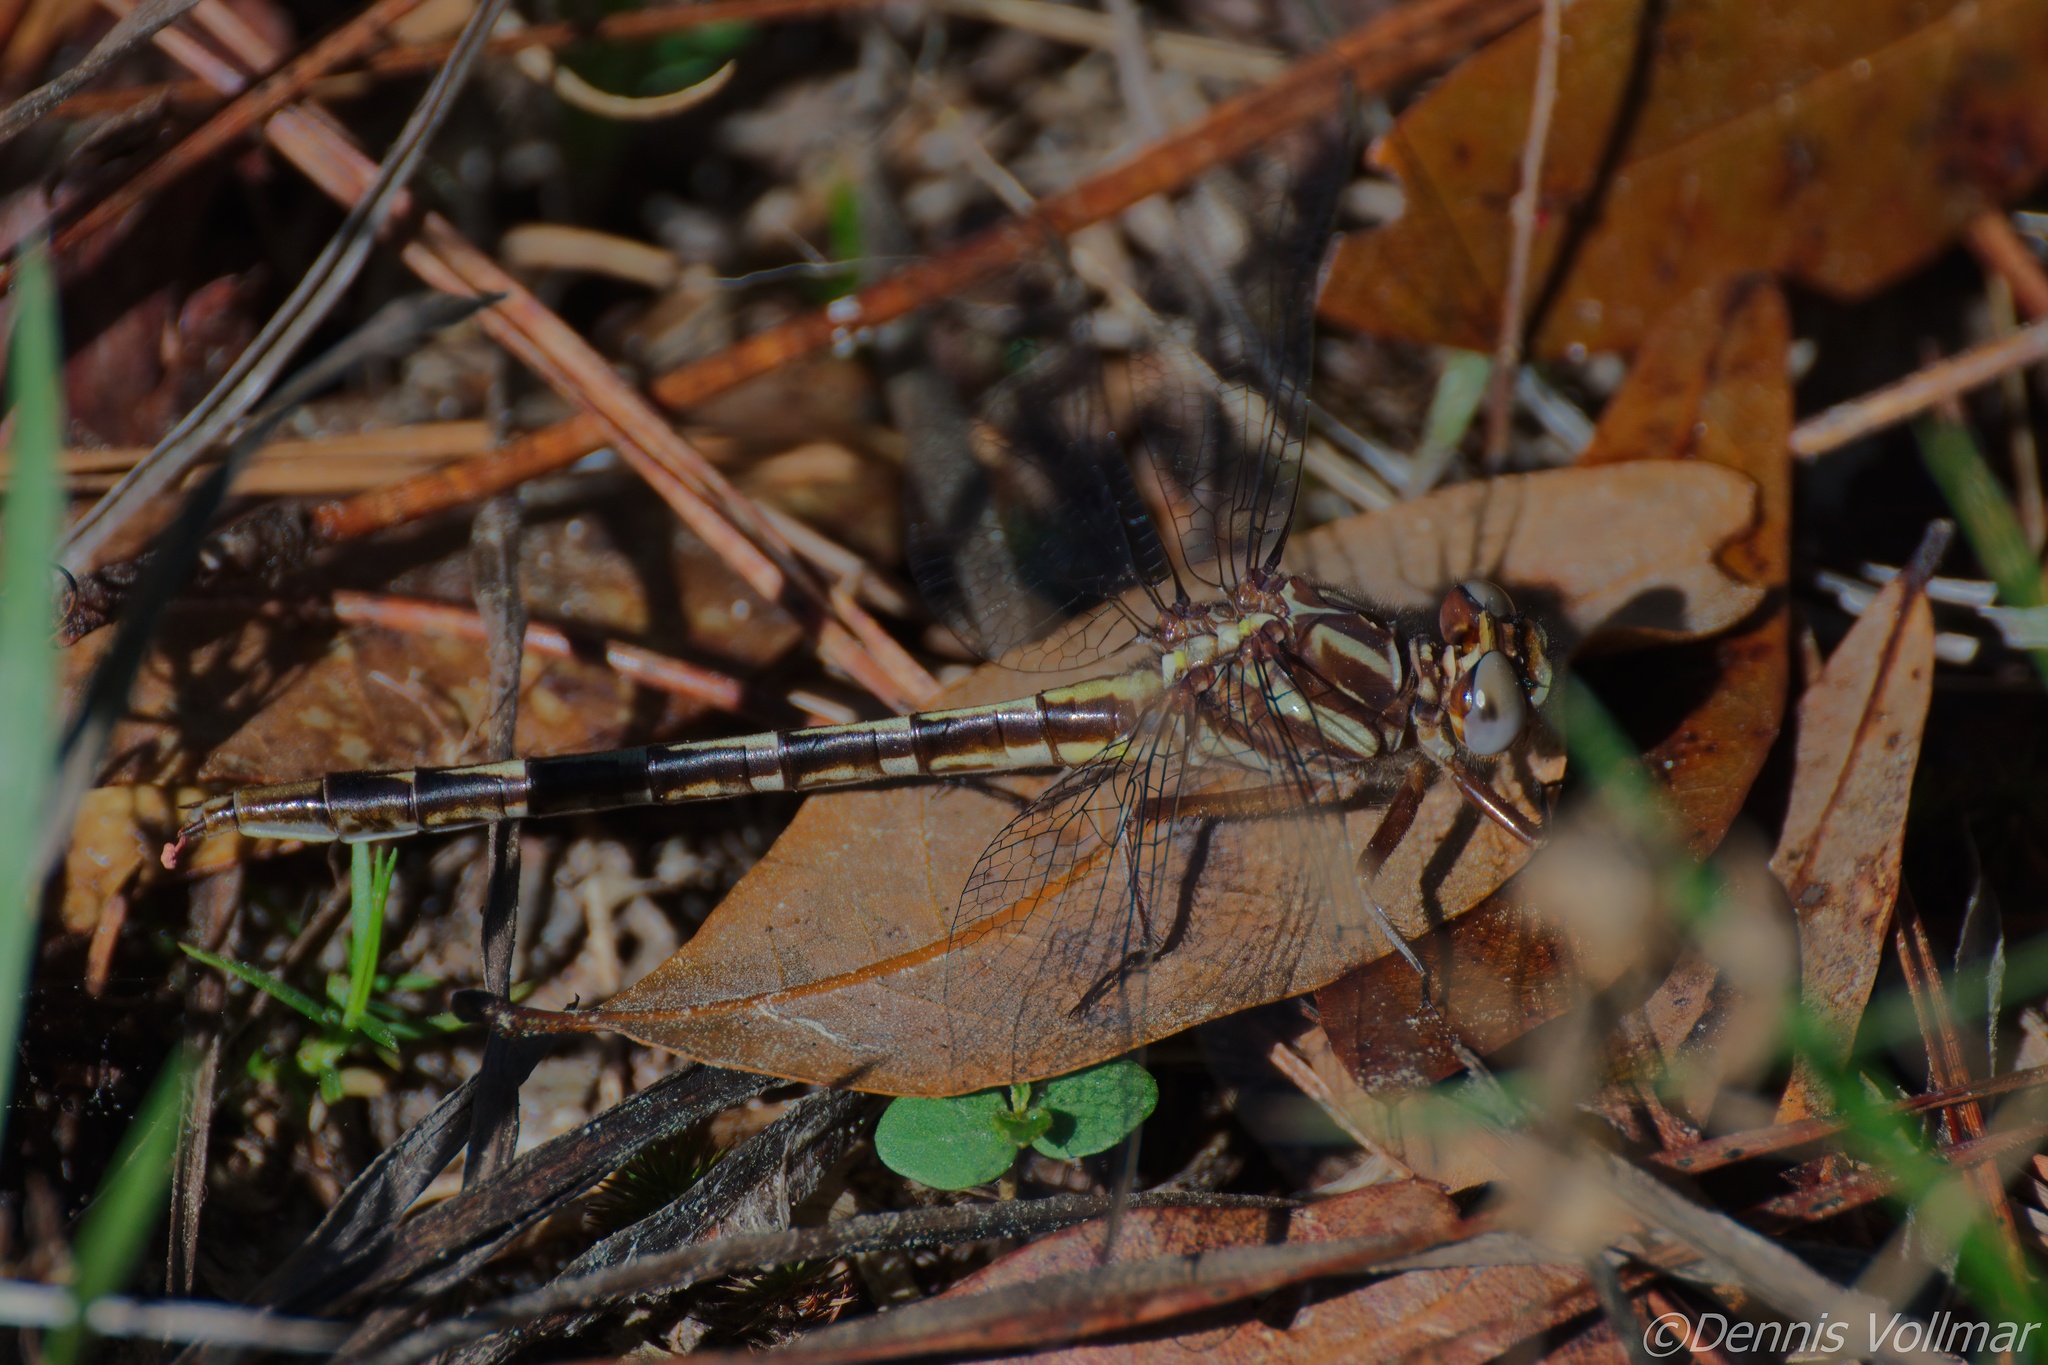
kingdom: Animalia
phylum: Arthropoda
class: Insecta
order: Odonata
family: Gomphidae
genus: Phanogomphus
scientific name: Phanogomphus lividus
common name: Ashy clubtail
